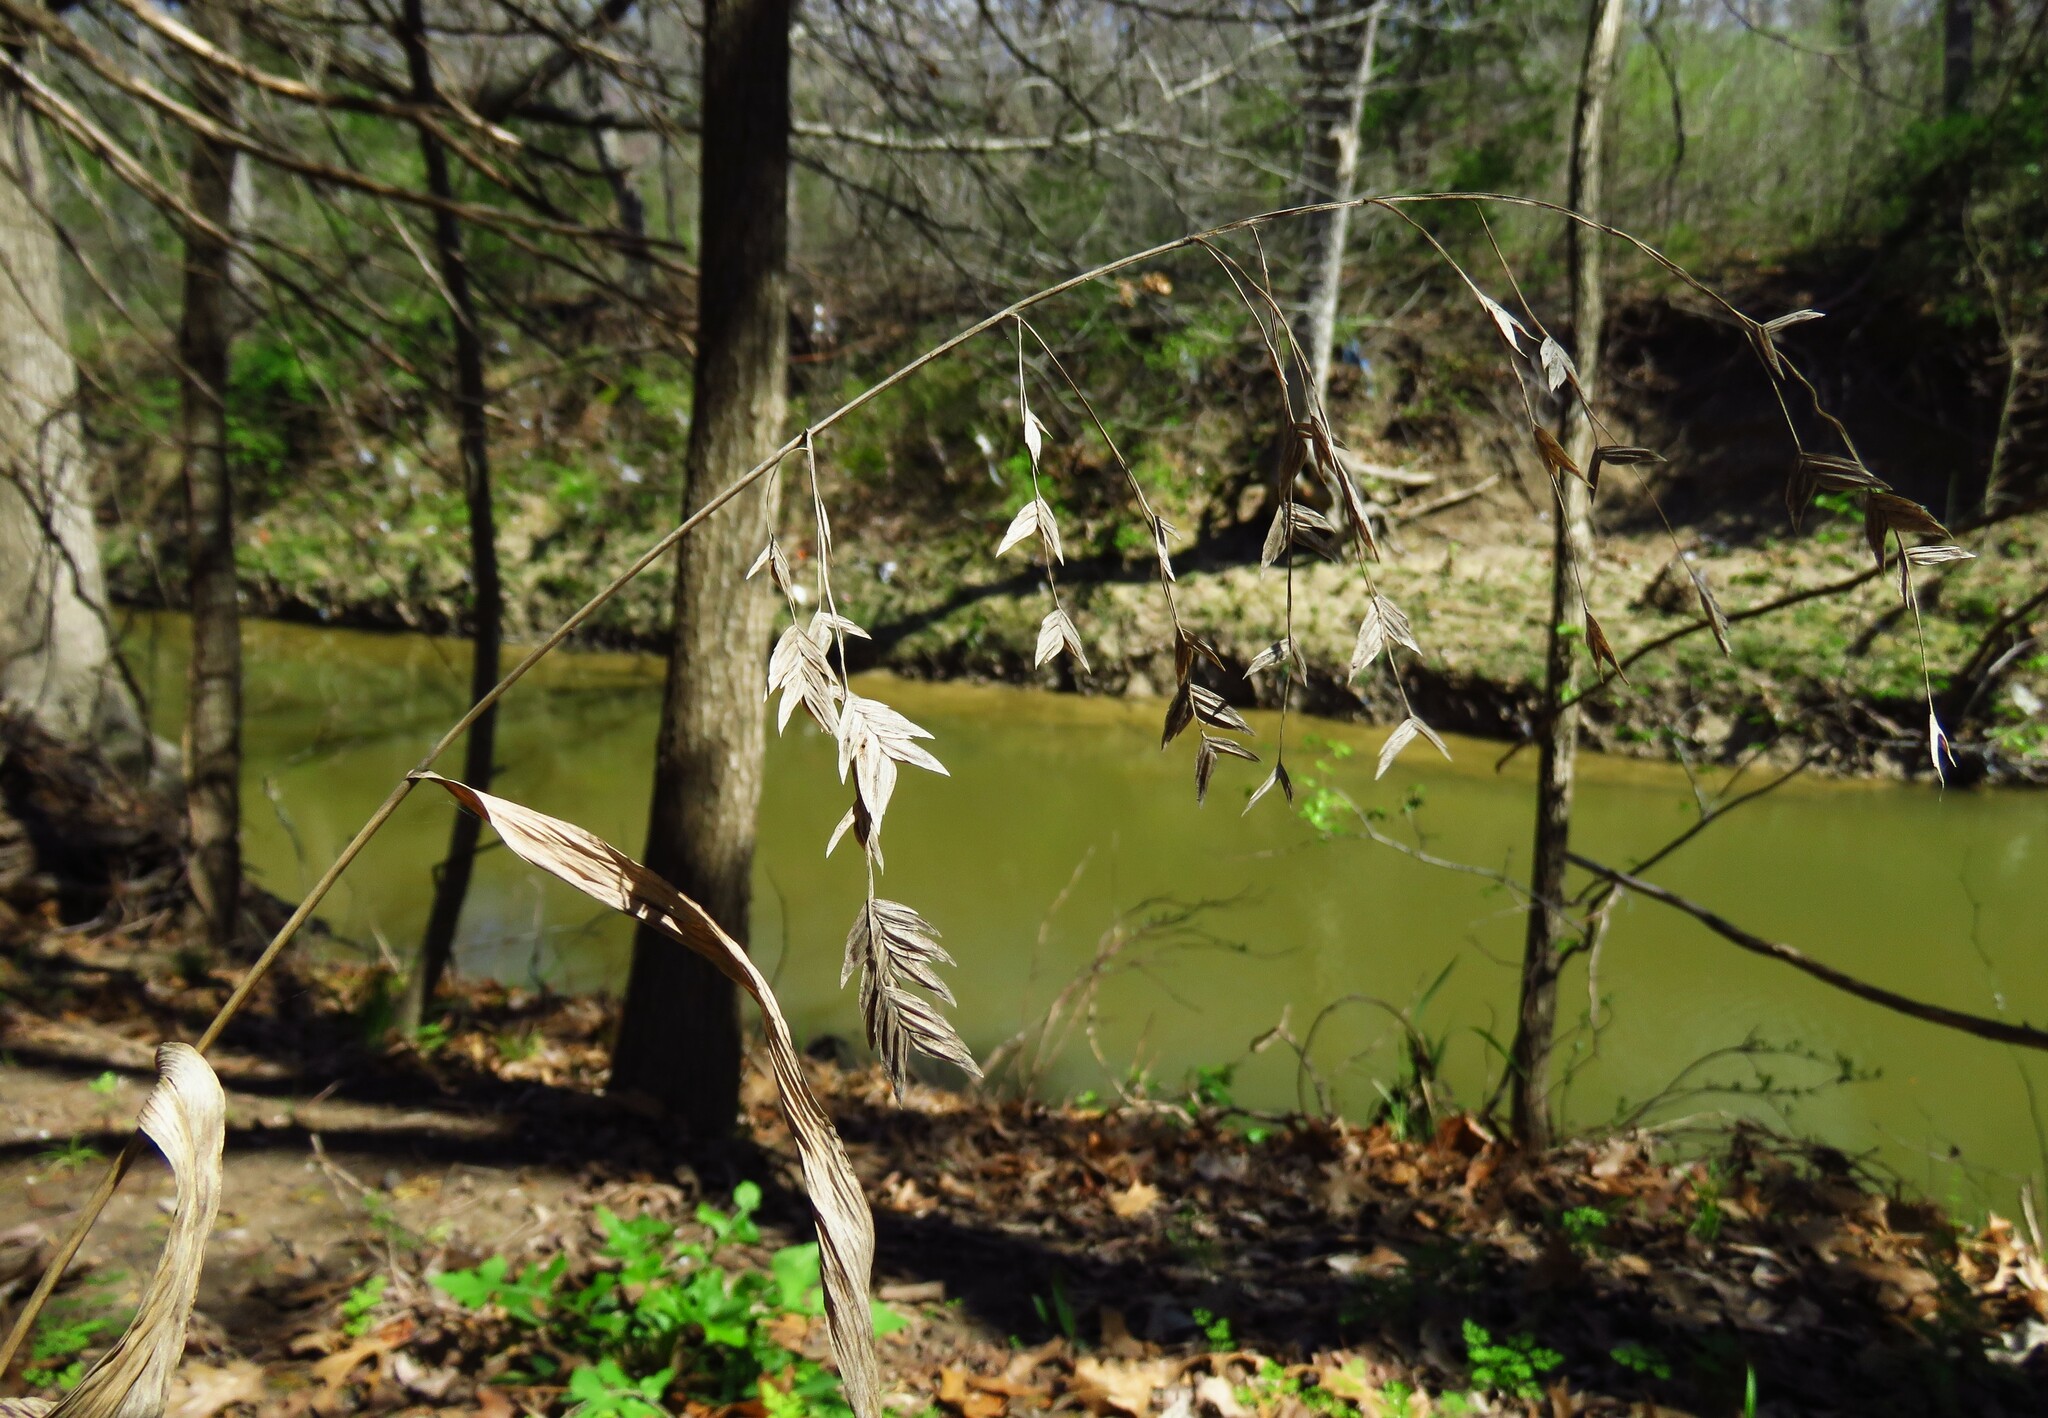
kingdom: Plantae
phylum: Tracheophyta
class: Liliopsida
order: Poales
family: Poaceae
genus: Chasmanthium
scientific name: Chasmanthium latifolium
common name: Broad-leaved chasmanthium
